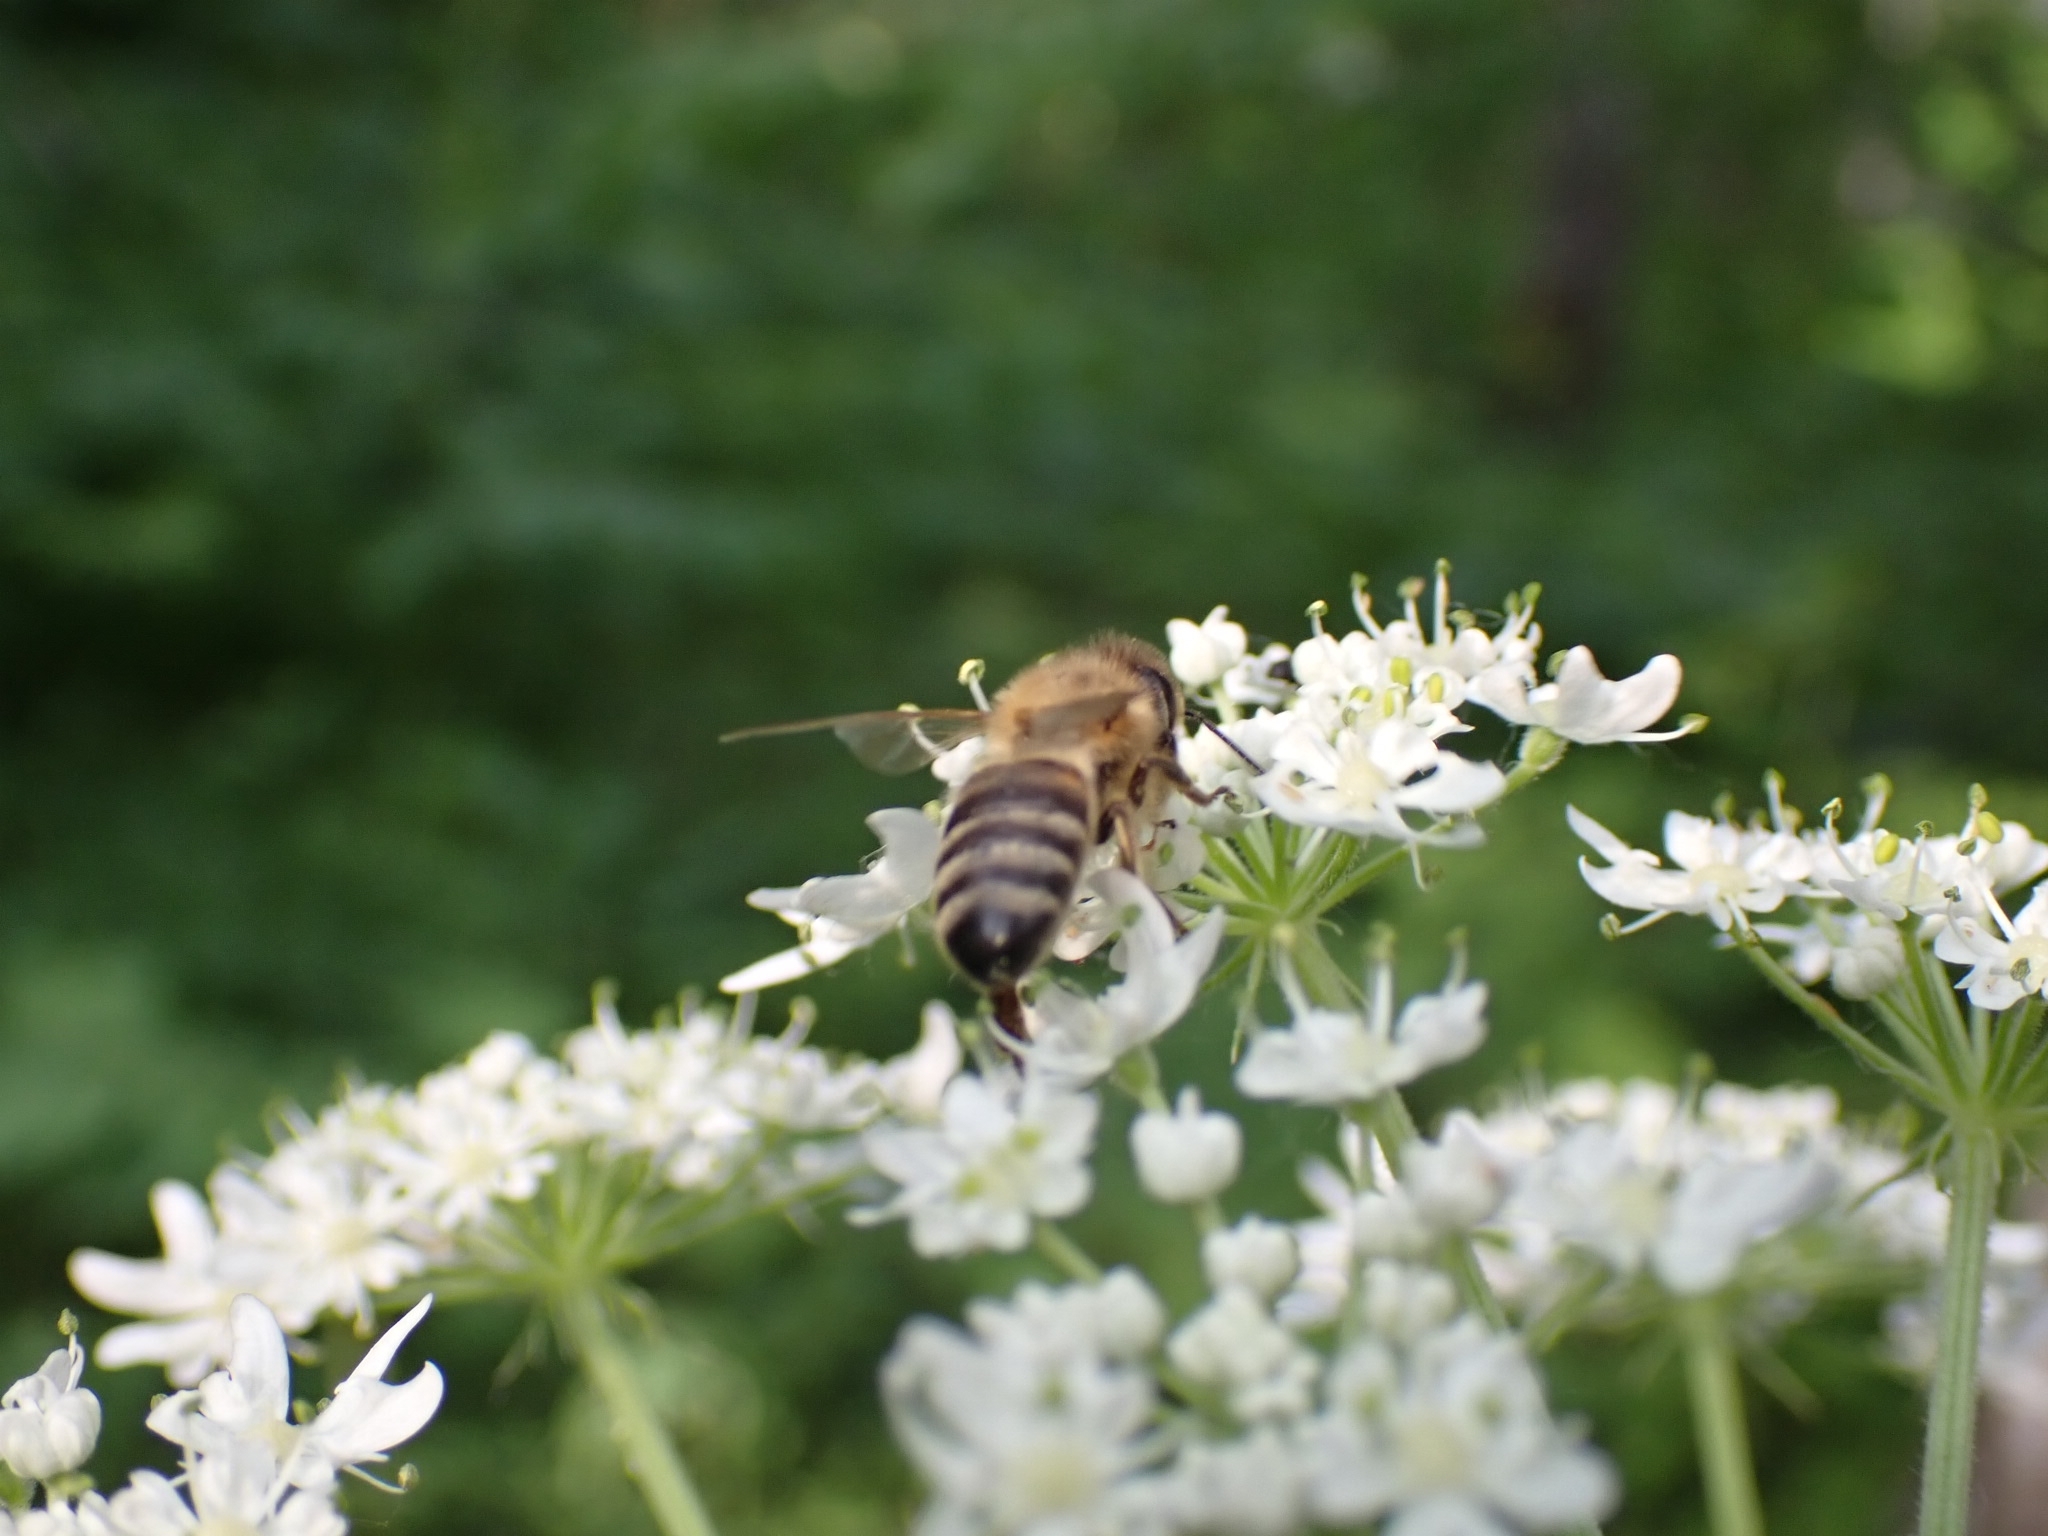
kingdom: Animalia
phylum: Arthropoda
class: Insecta
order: Hymenoptera
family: Apidae
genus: Apis
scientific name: Apis mellifera
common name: Honey bee
